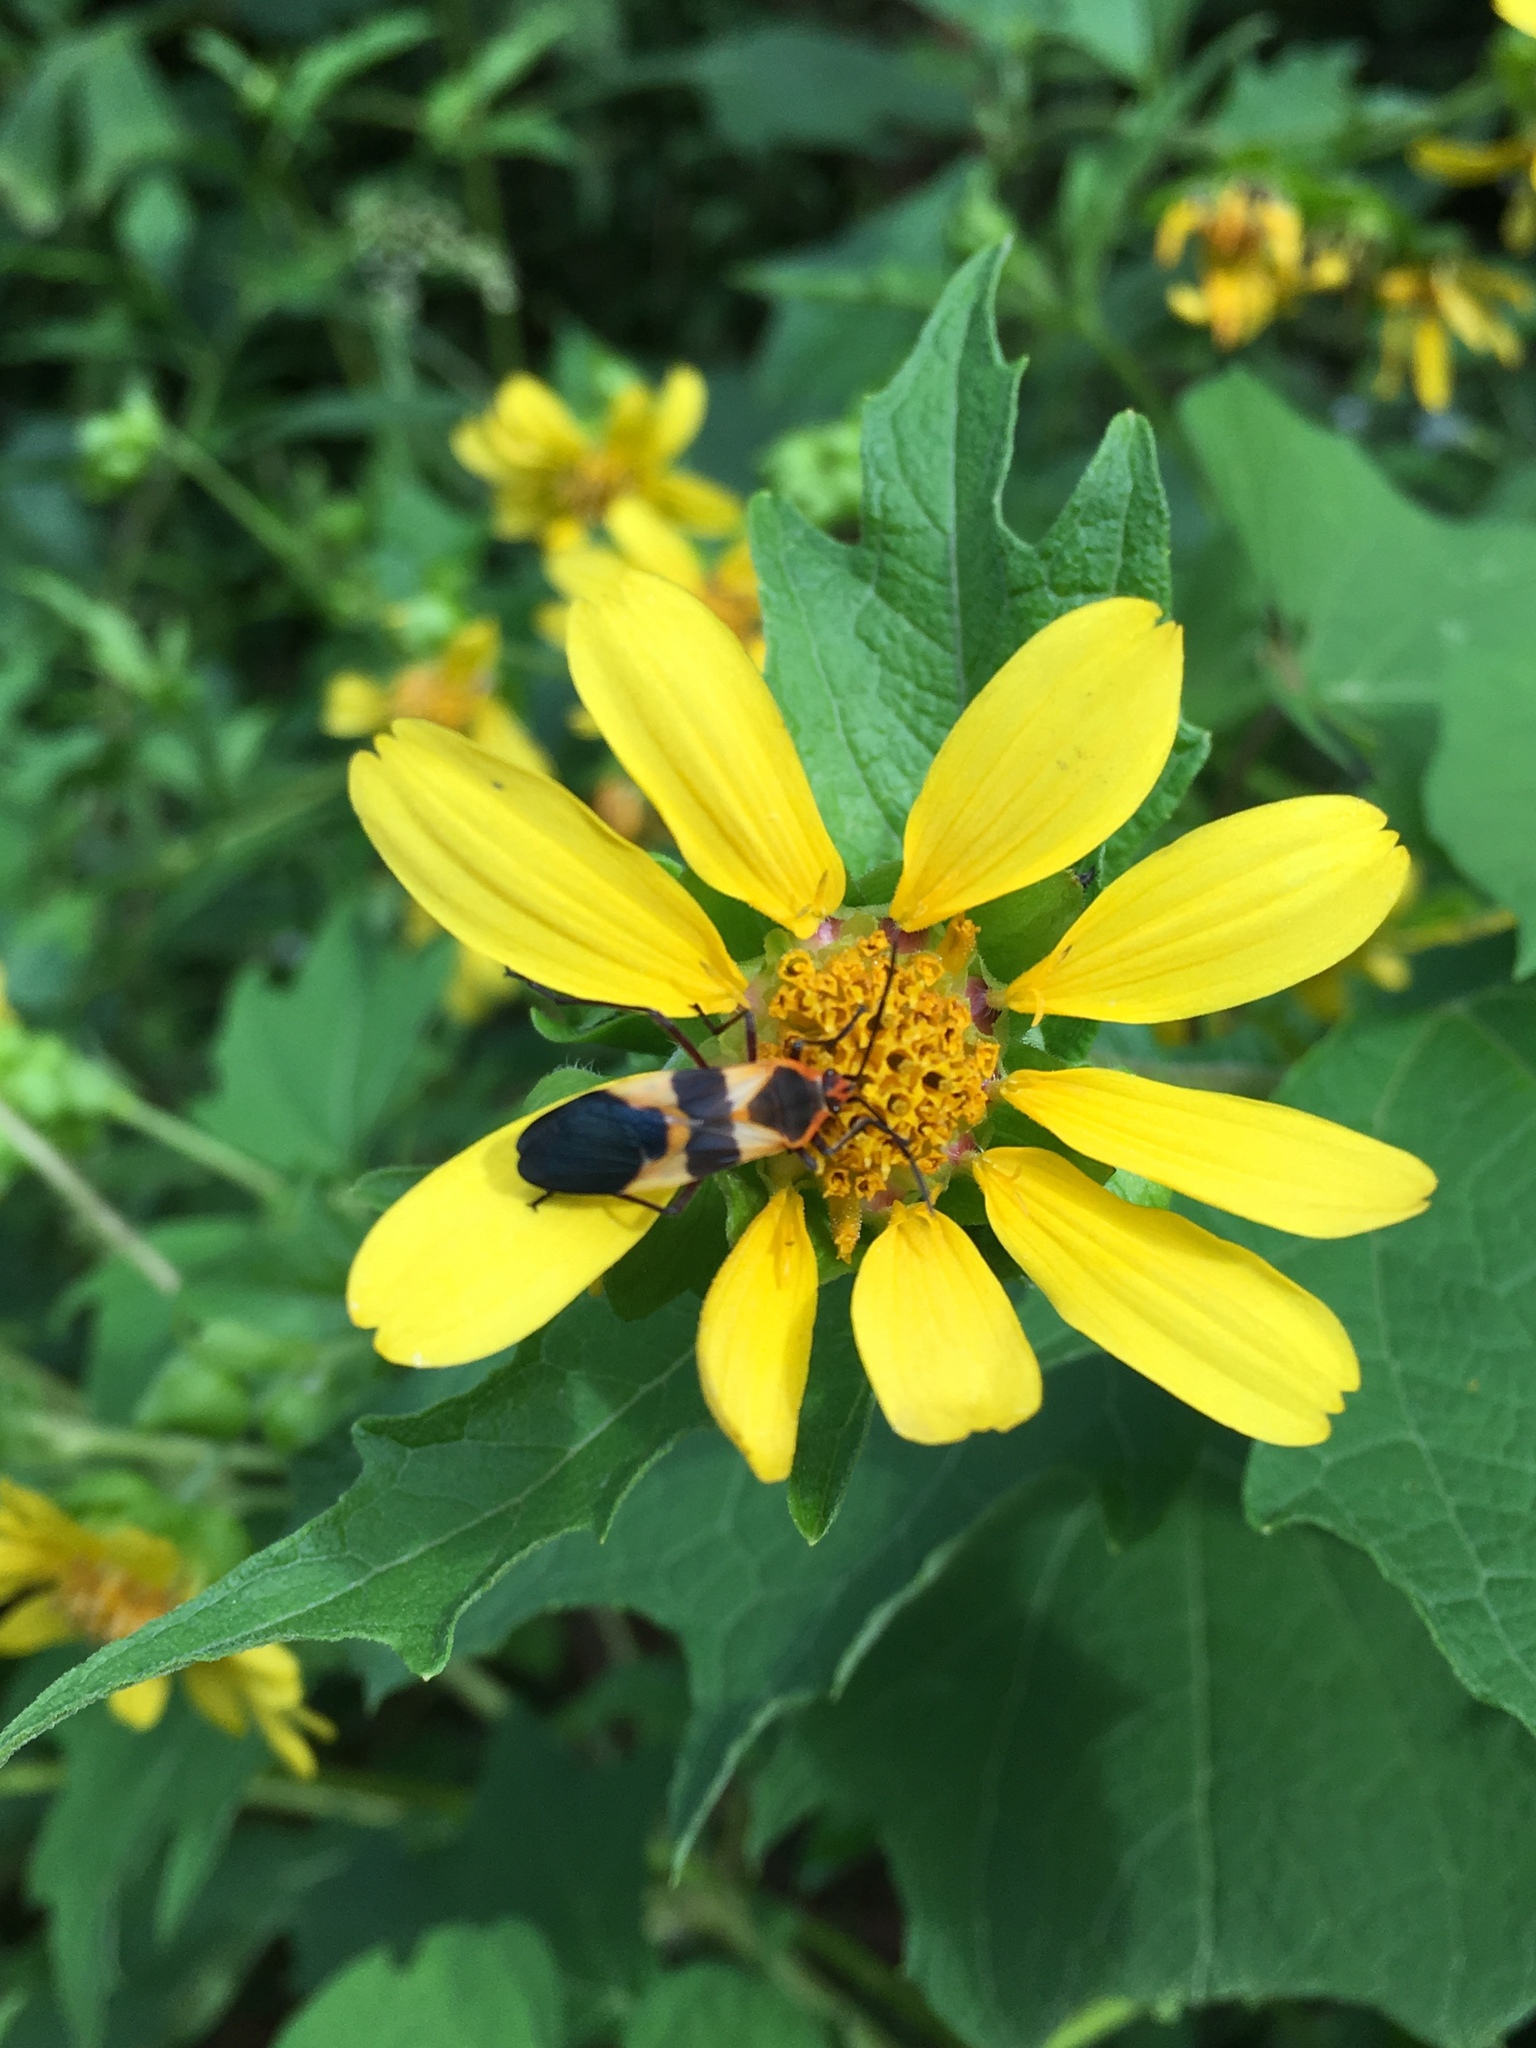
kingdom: Animalia
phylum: Arthropoda
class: Insecta
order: Hemiptera
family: Lygaeidae
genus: Oncopeltus
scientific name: Oncopeltus fasciatus
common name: Large milkweed bug
